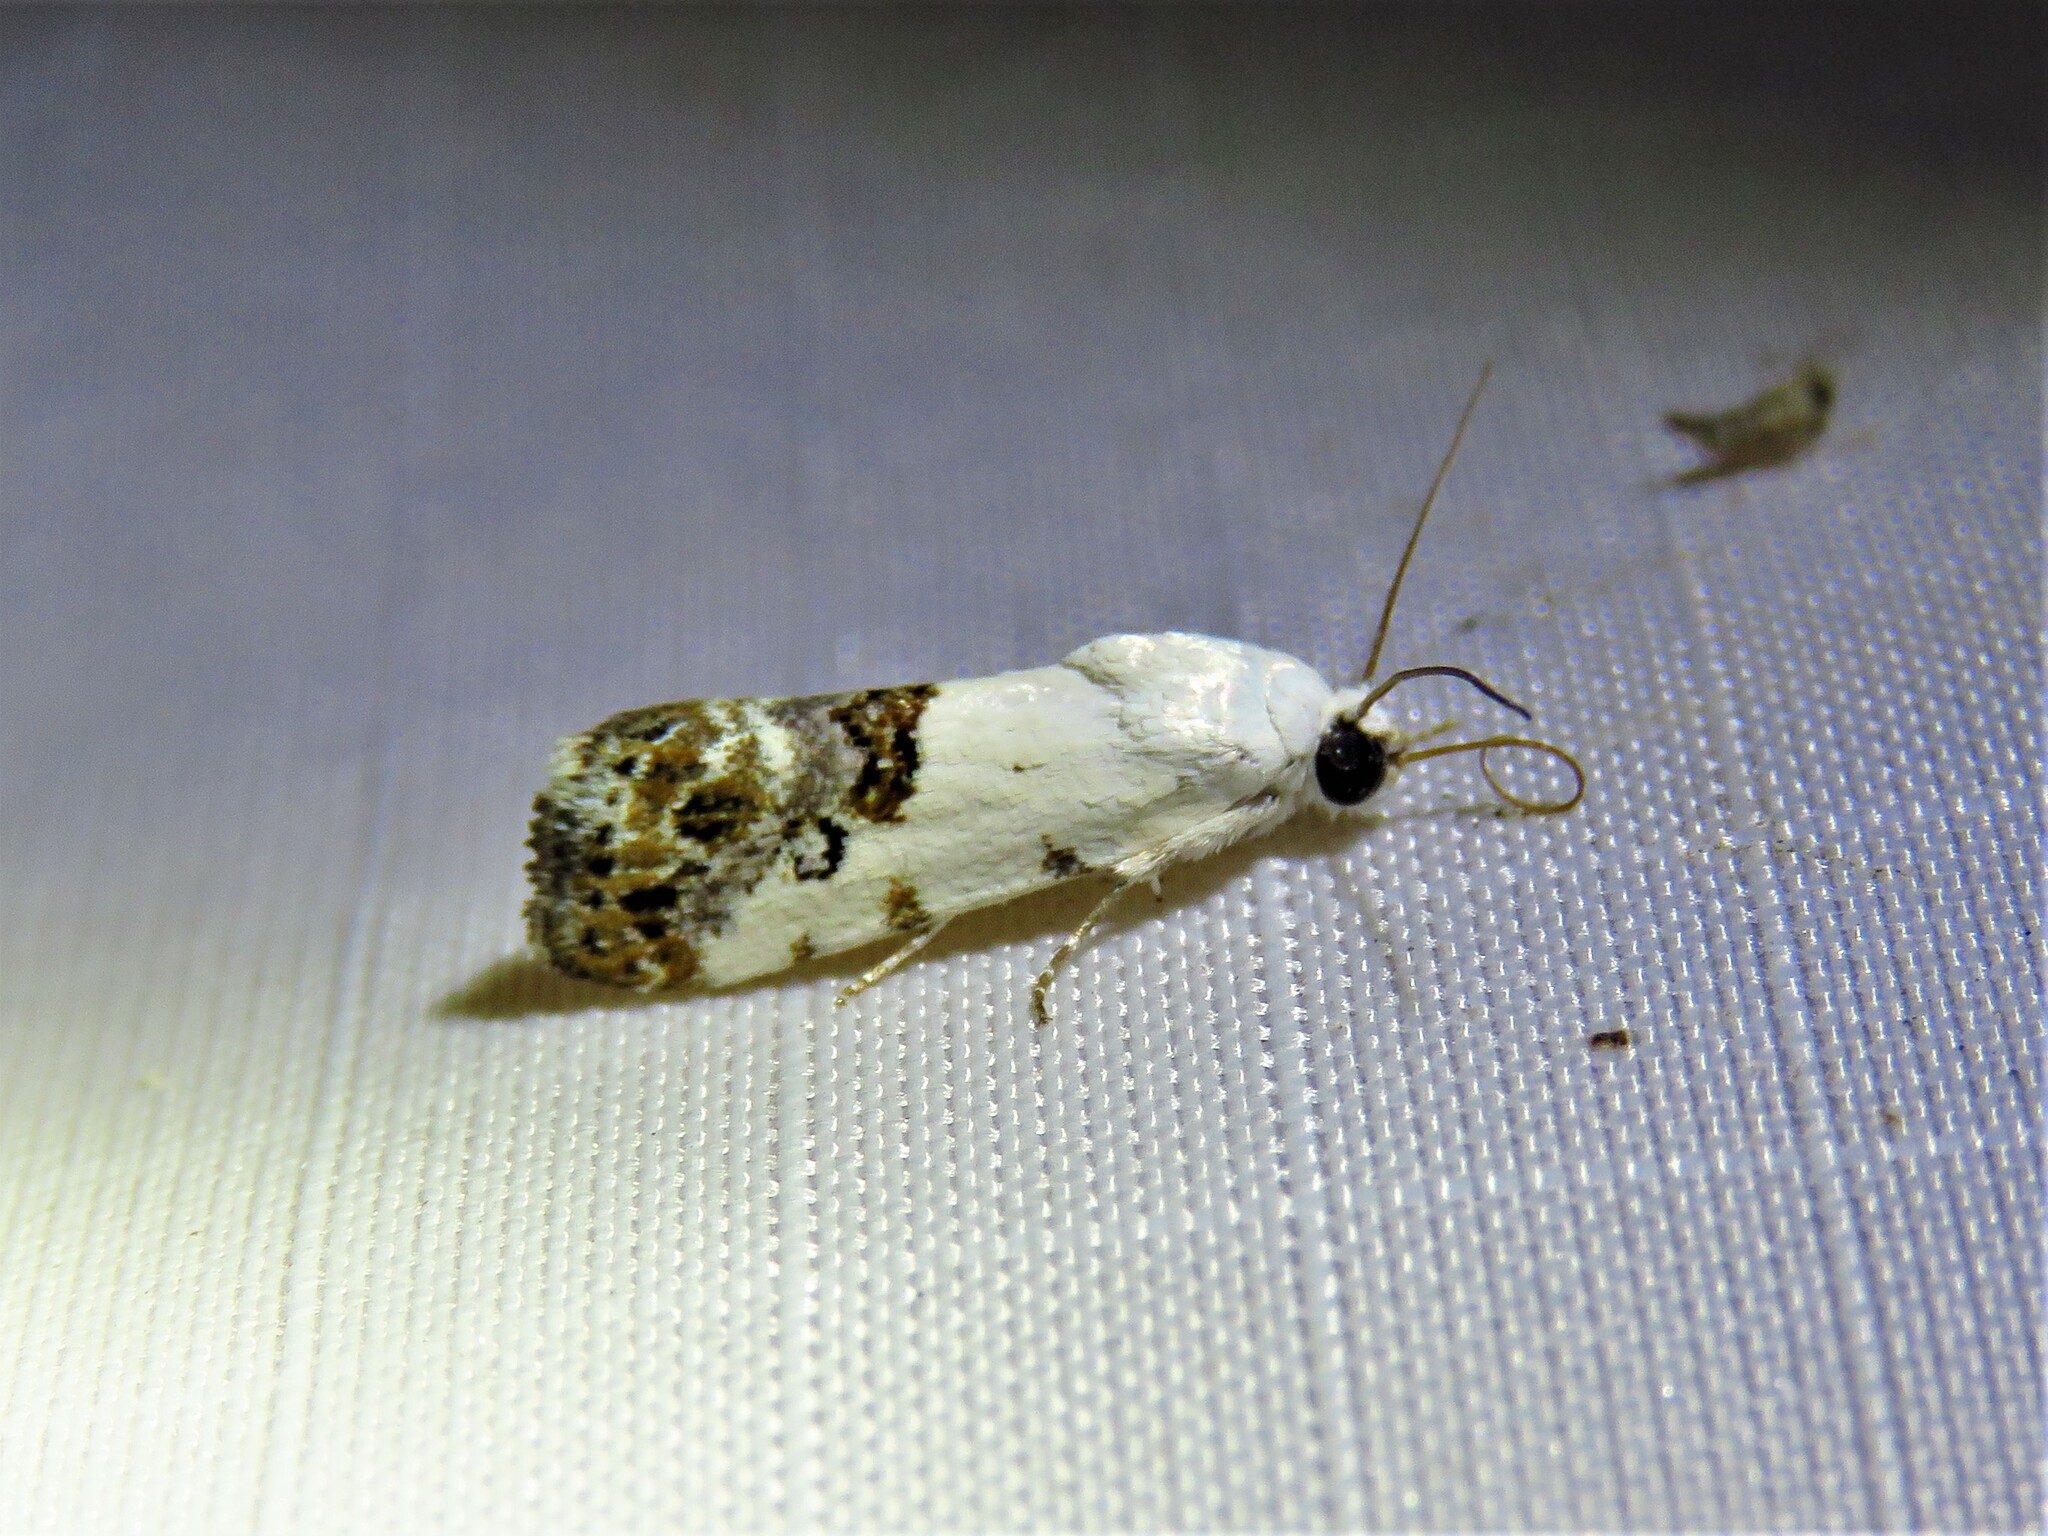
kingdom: Animalia
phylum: Arthropoda
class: Insecta
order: Lepidoptera
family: Noctuidae
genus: Acontia
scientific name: Acontia phecolisca
